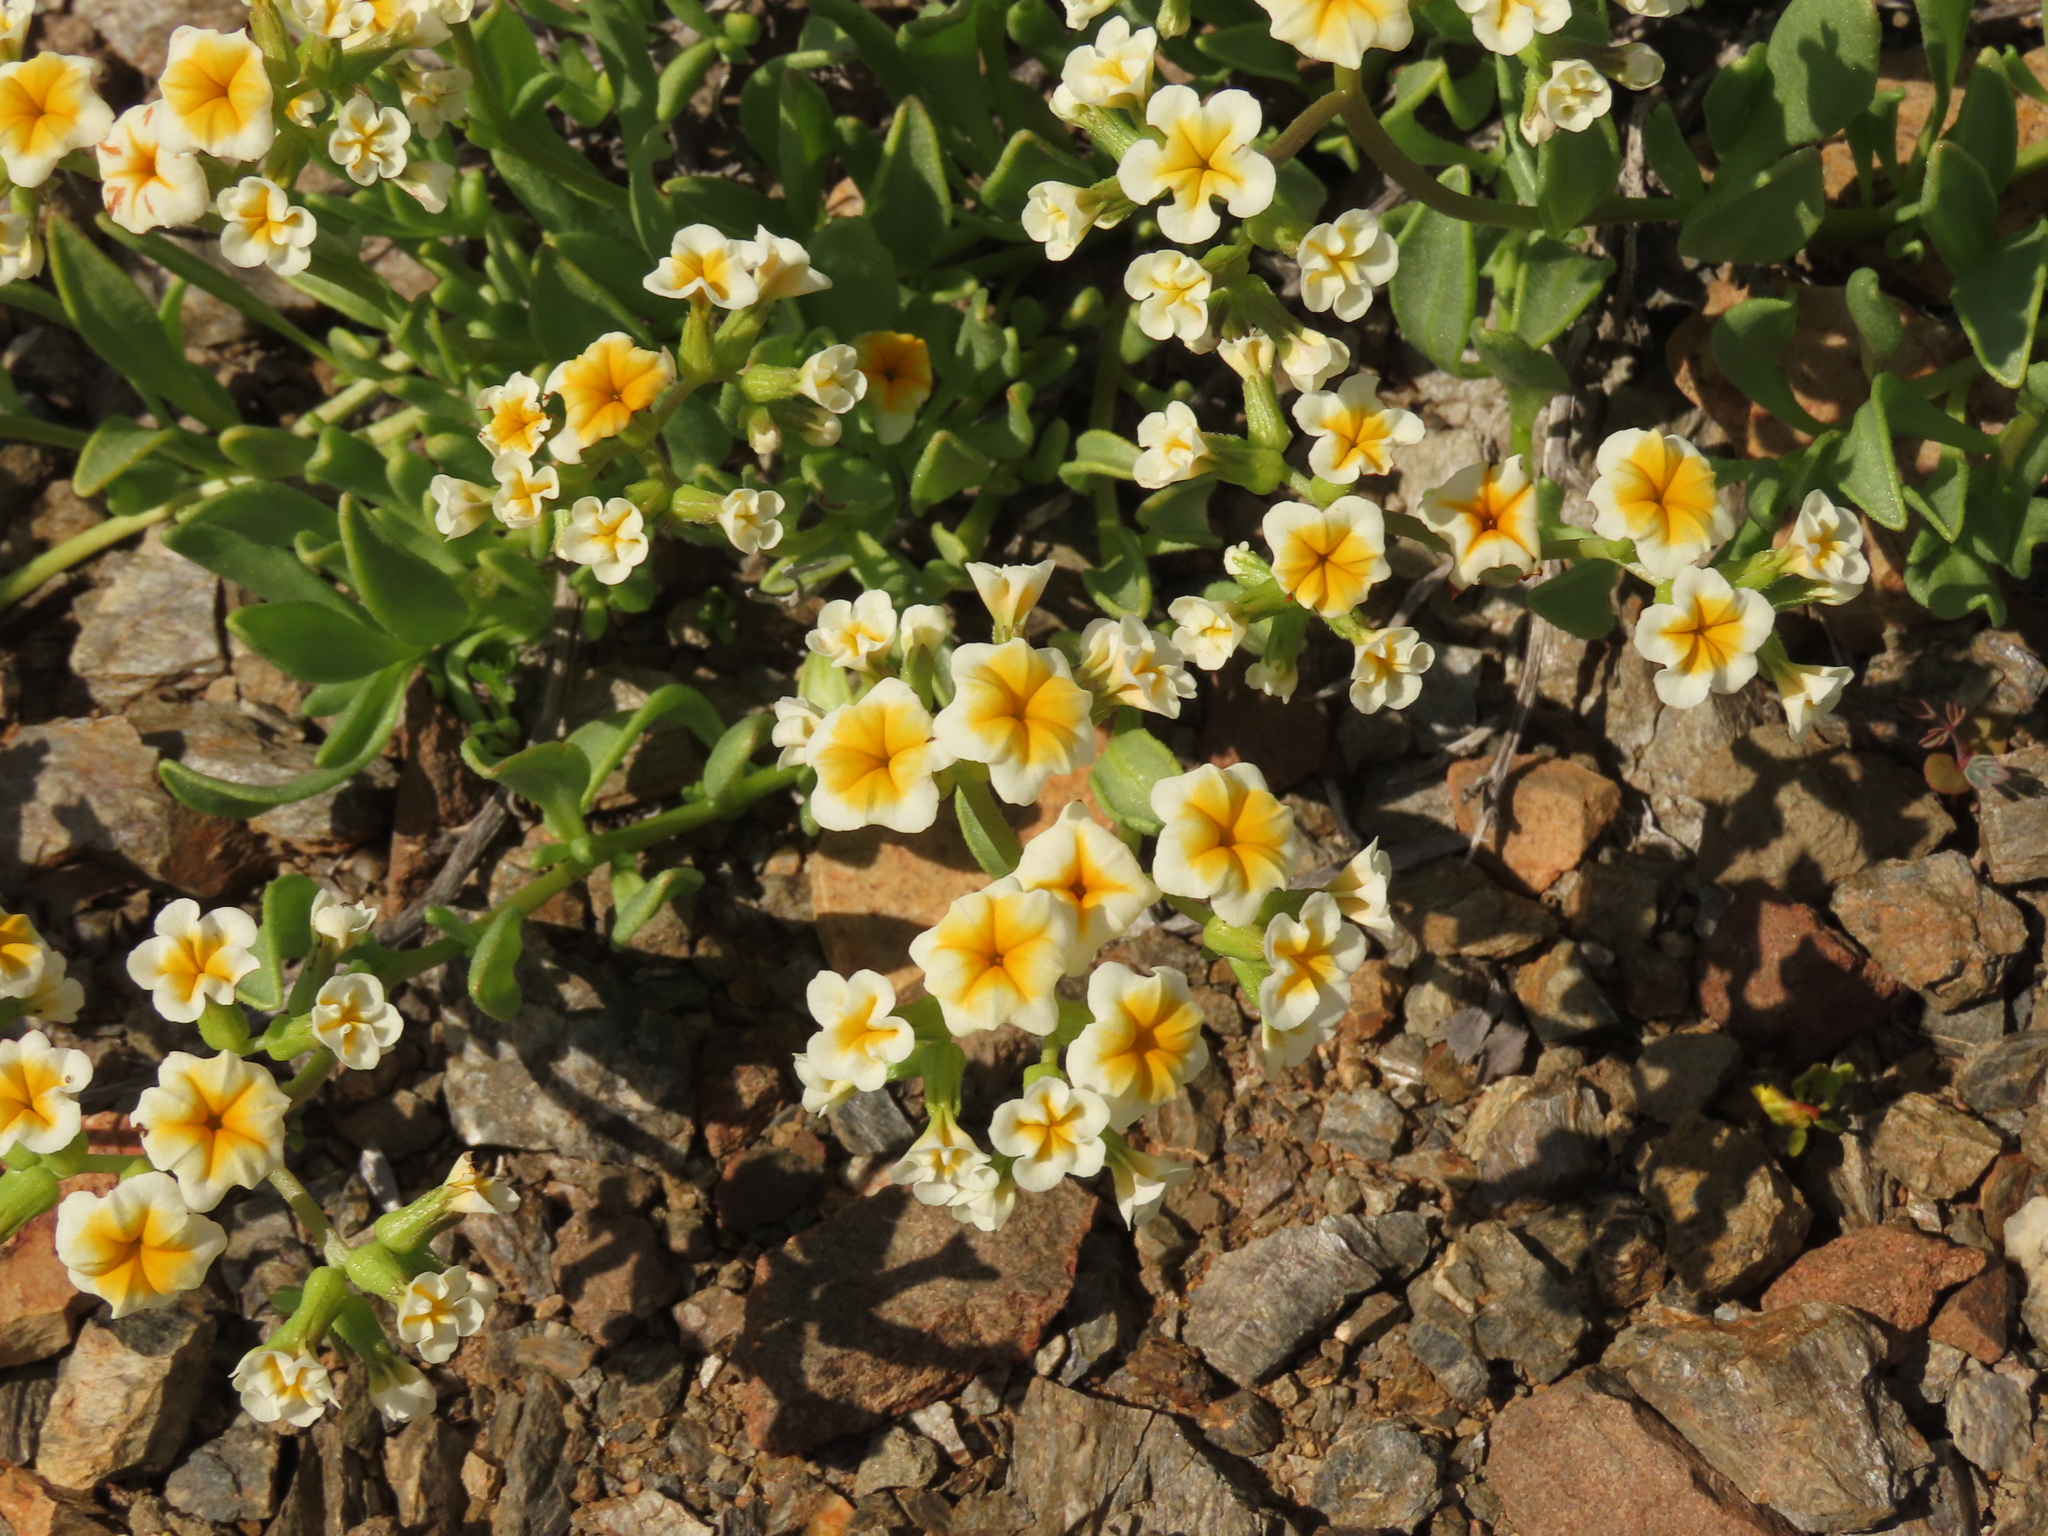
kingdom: Plantae
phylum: Tracheophyta
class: Magnoliopsida
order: Boraginales
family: Heliotropiaceae
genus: Heliotropium
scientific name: Heliotropium floridum
